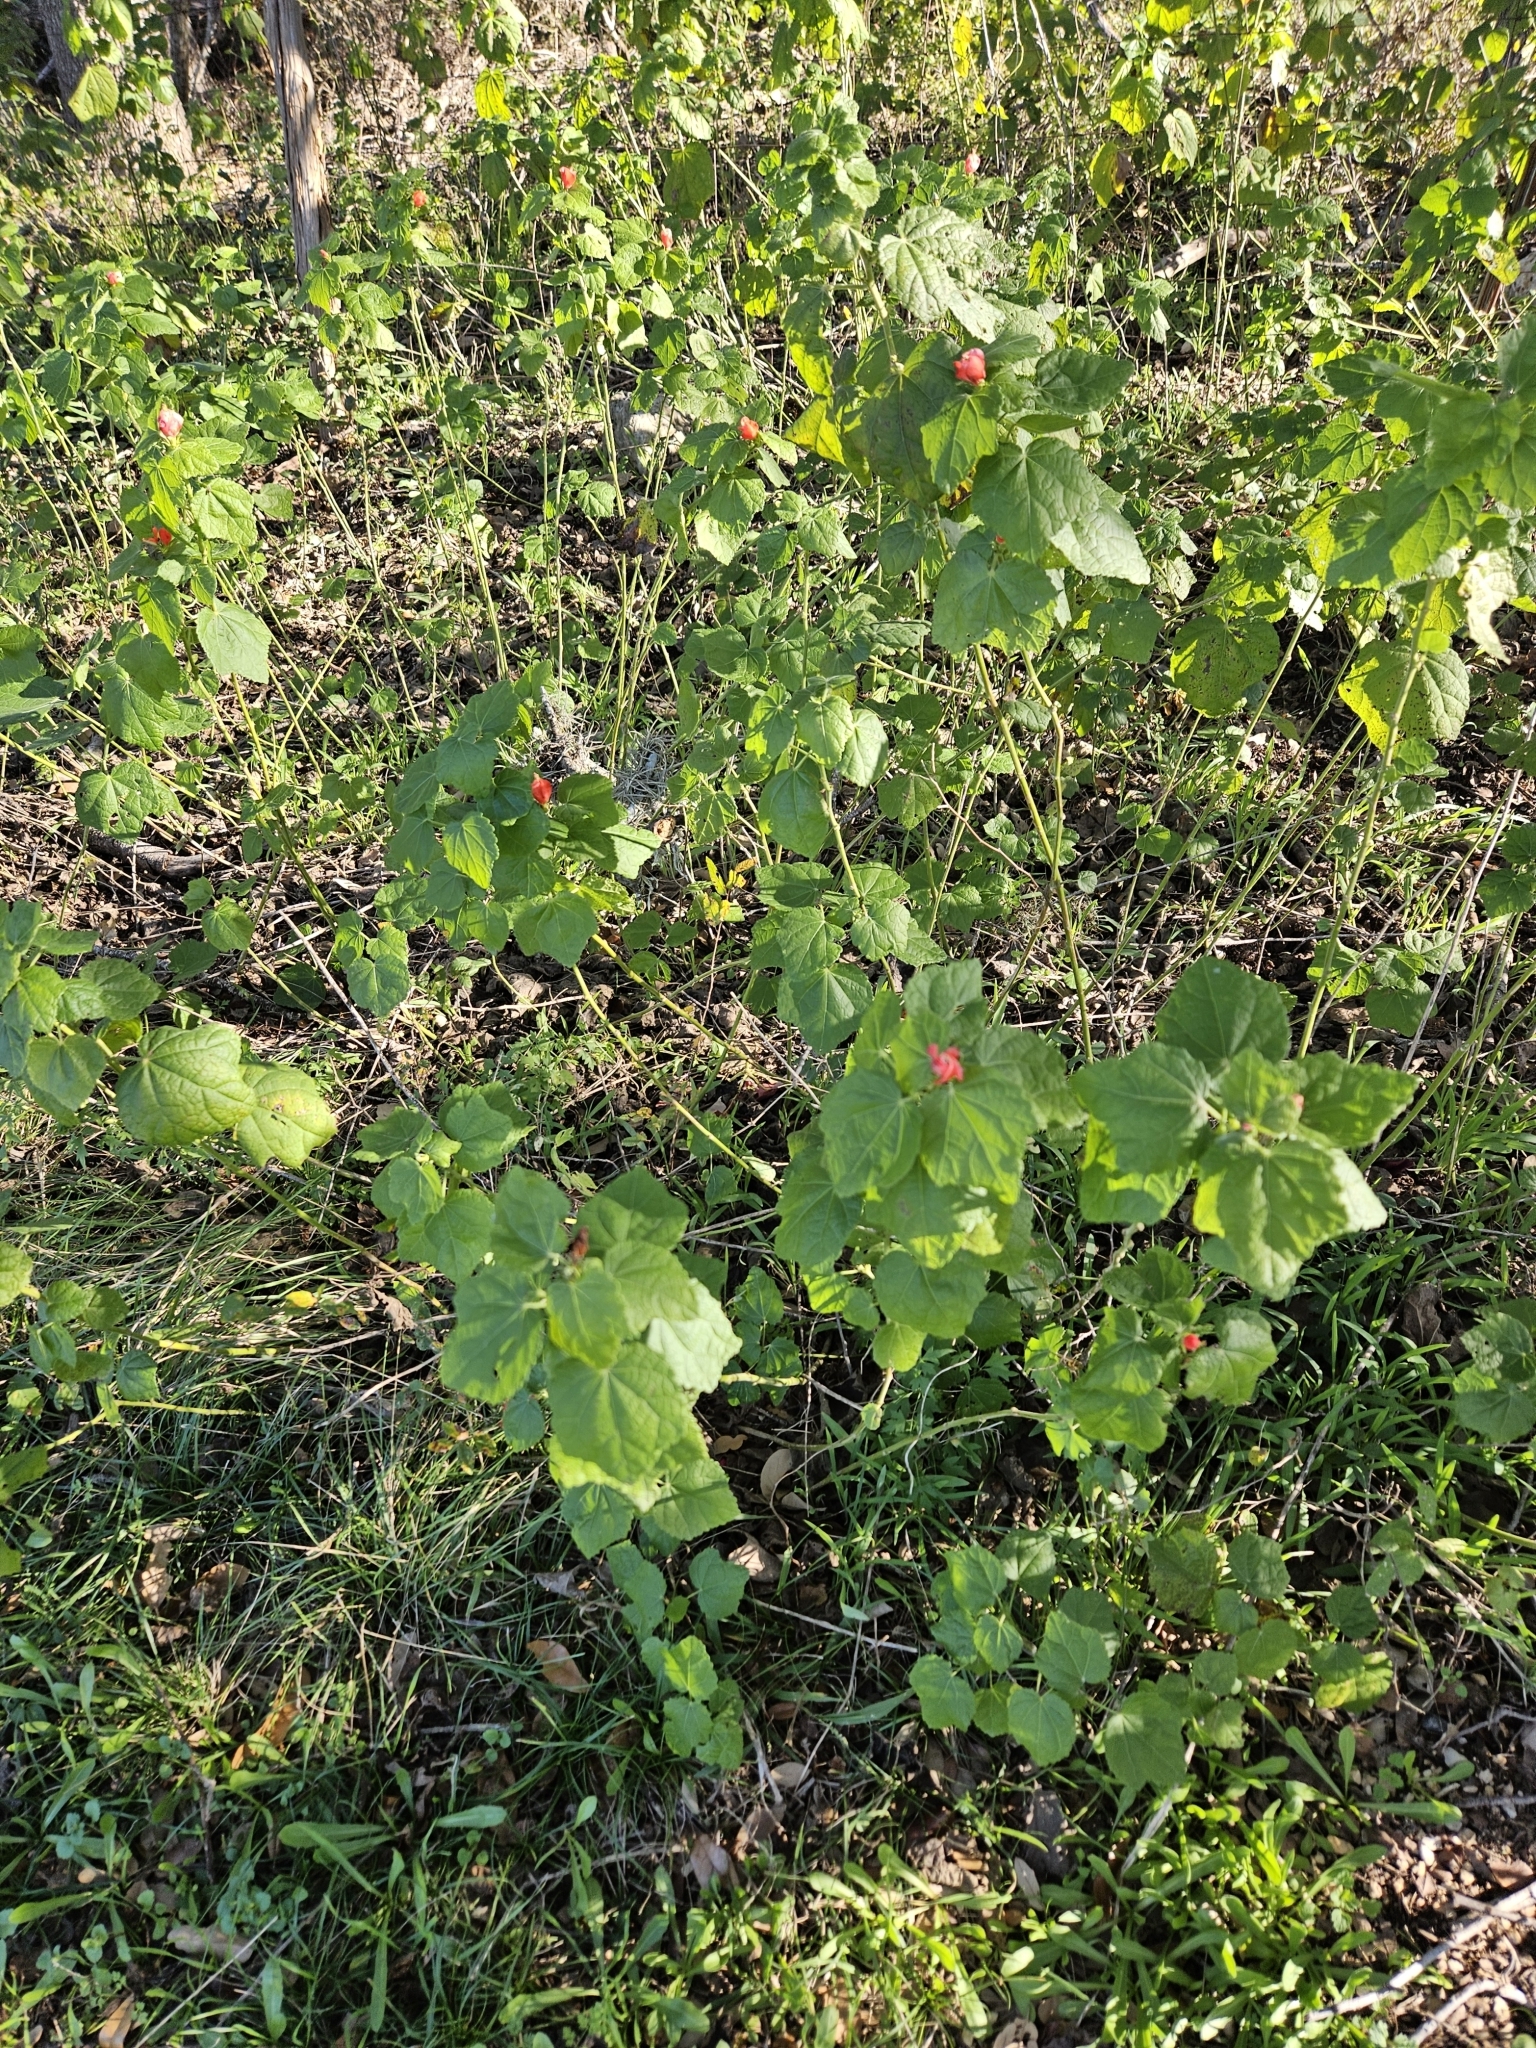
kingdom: Plantae
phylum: Tracheophyta
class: Magnoliopsida
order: Malvales
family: Malvaceae
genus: Malvaviscus
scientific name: Malvaviscus arboreus
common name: Wax mallow
